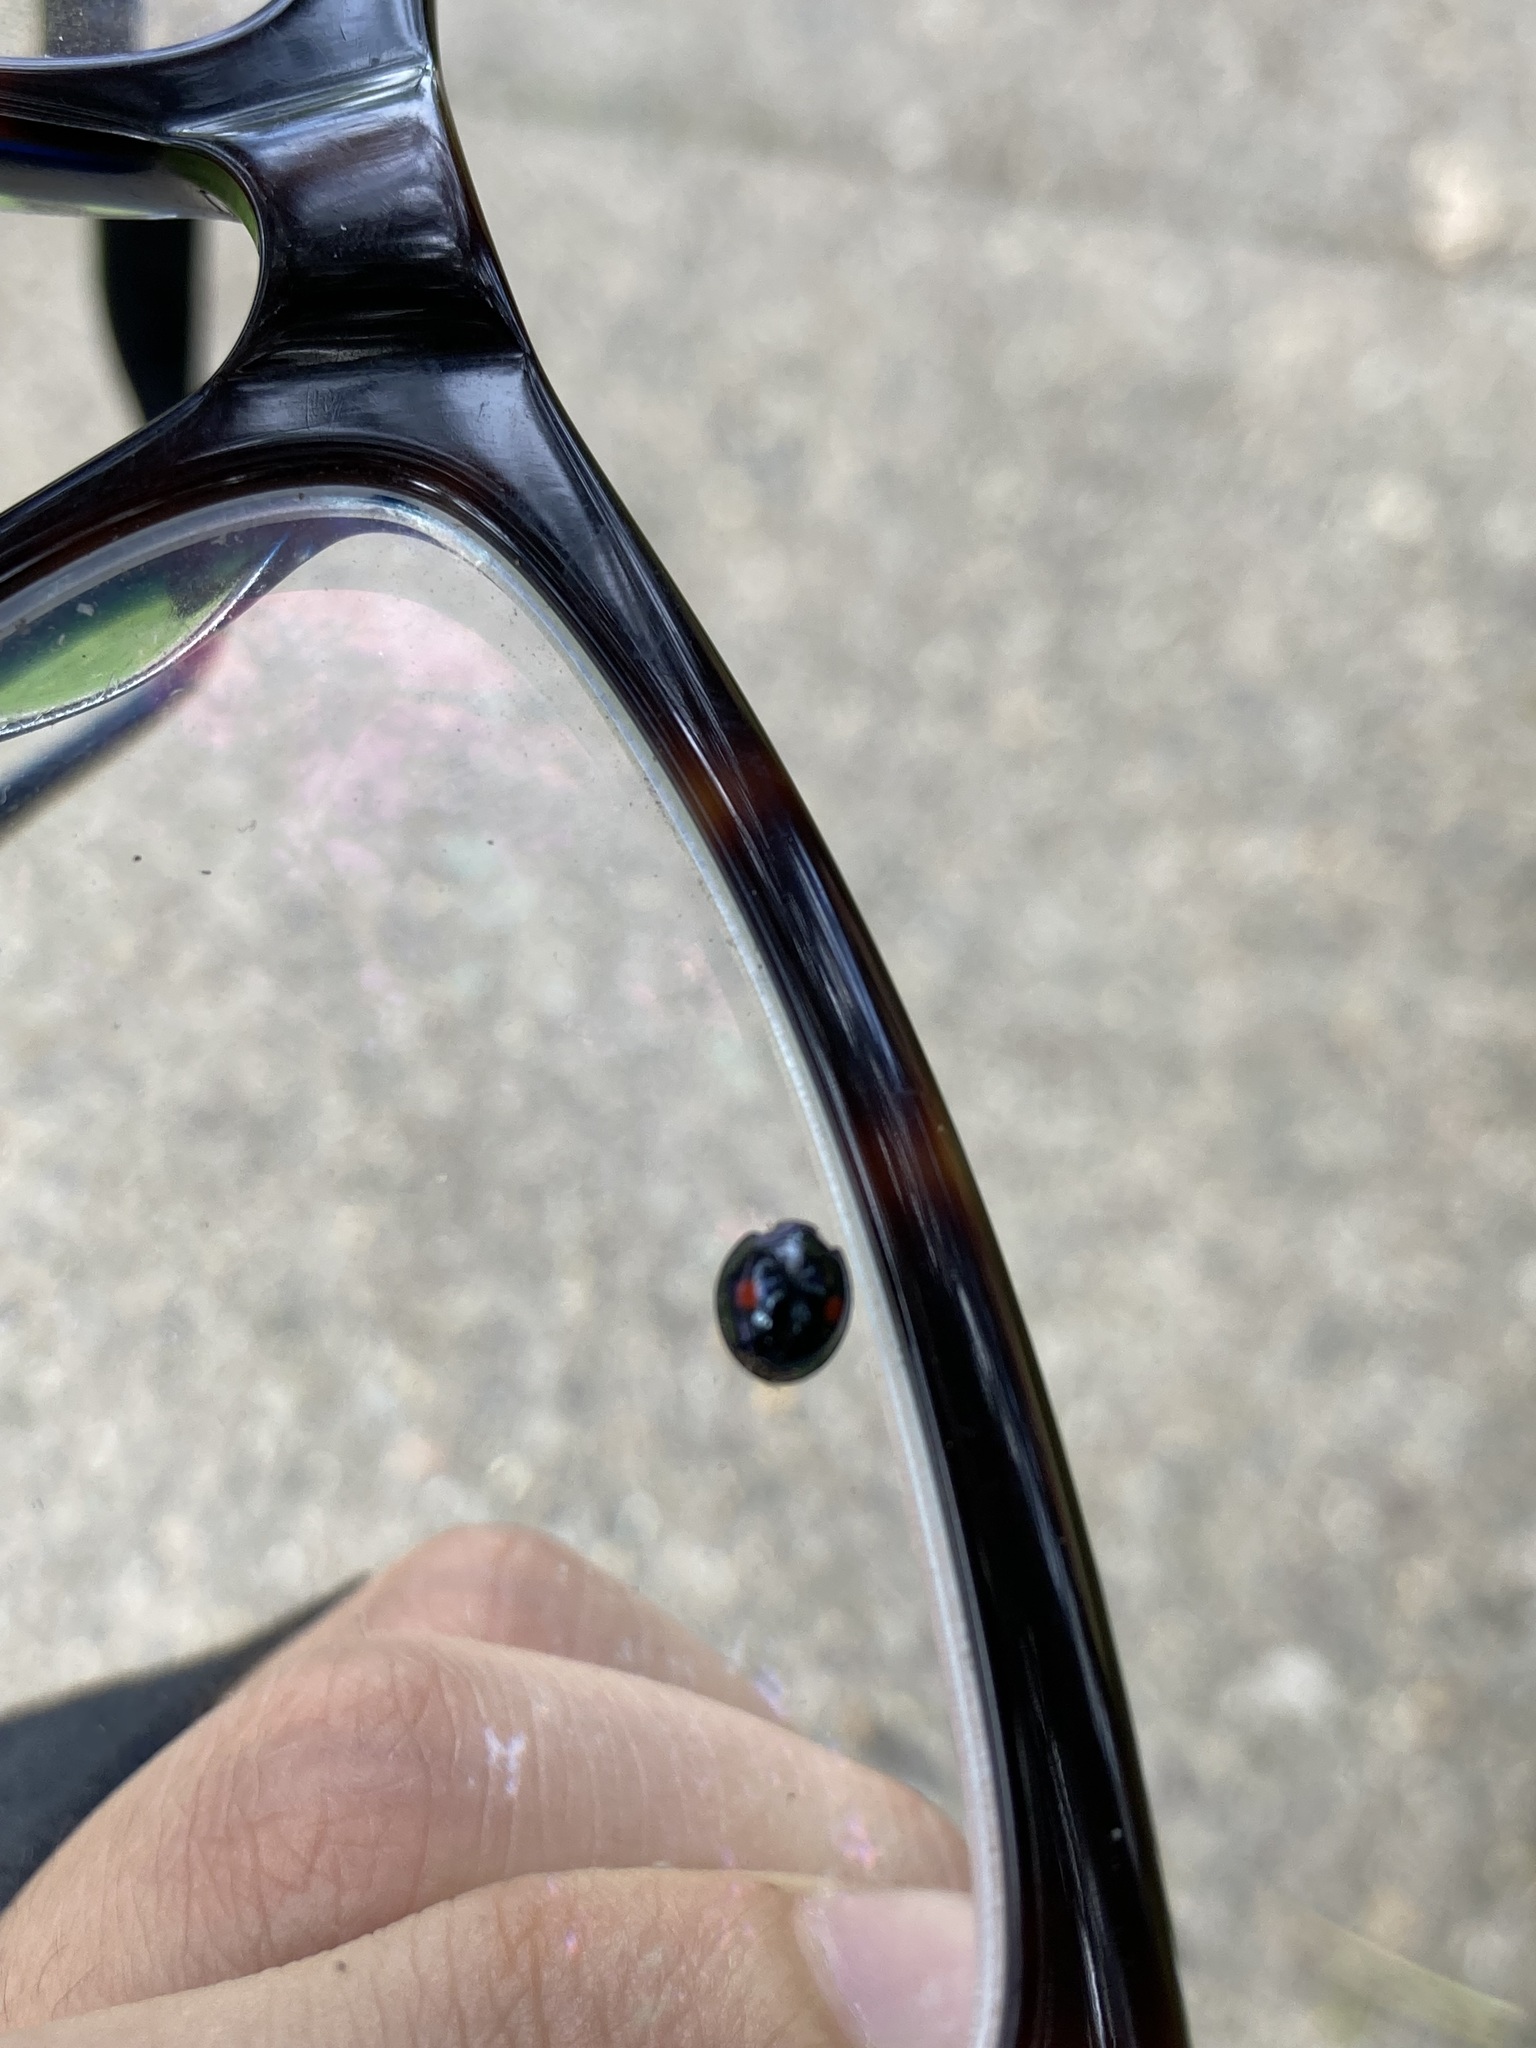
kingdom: Animalia
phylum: Arthropoda
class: Insecta
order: Coleoptera
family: Coccinellidae
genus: Chilocorus
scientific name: Chilocorus stigma
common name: Twicestabbed lady beetle
